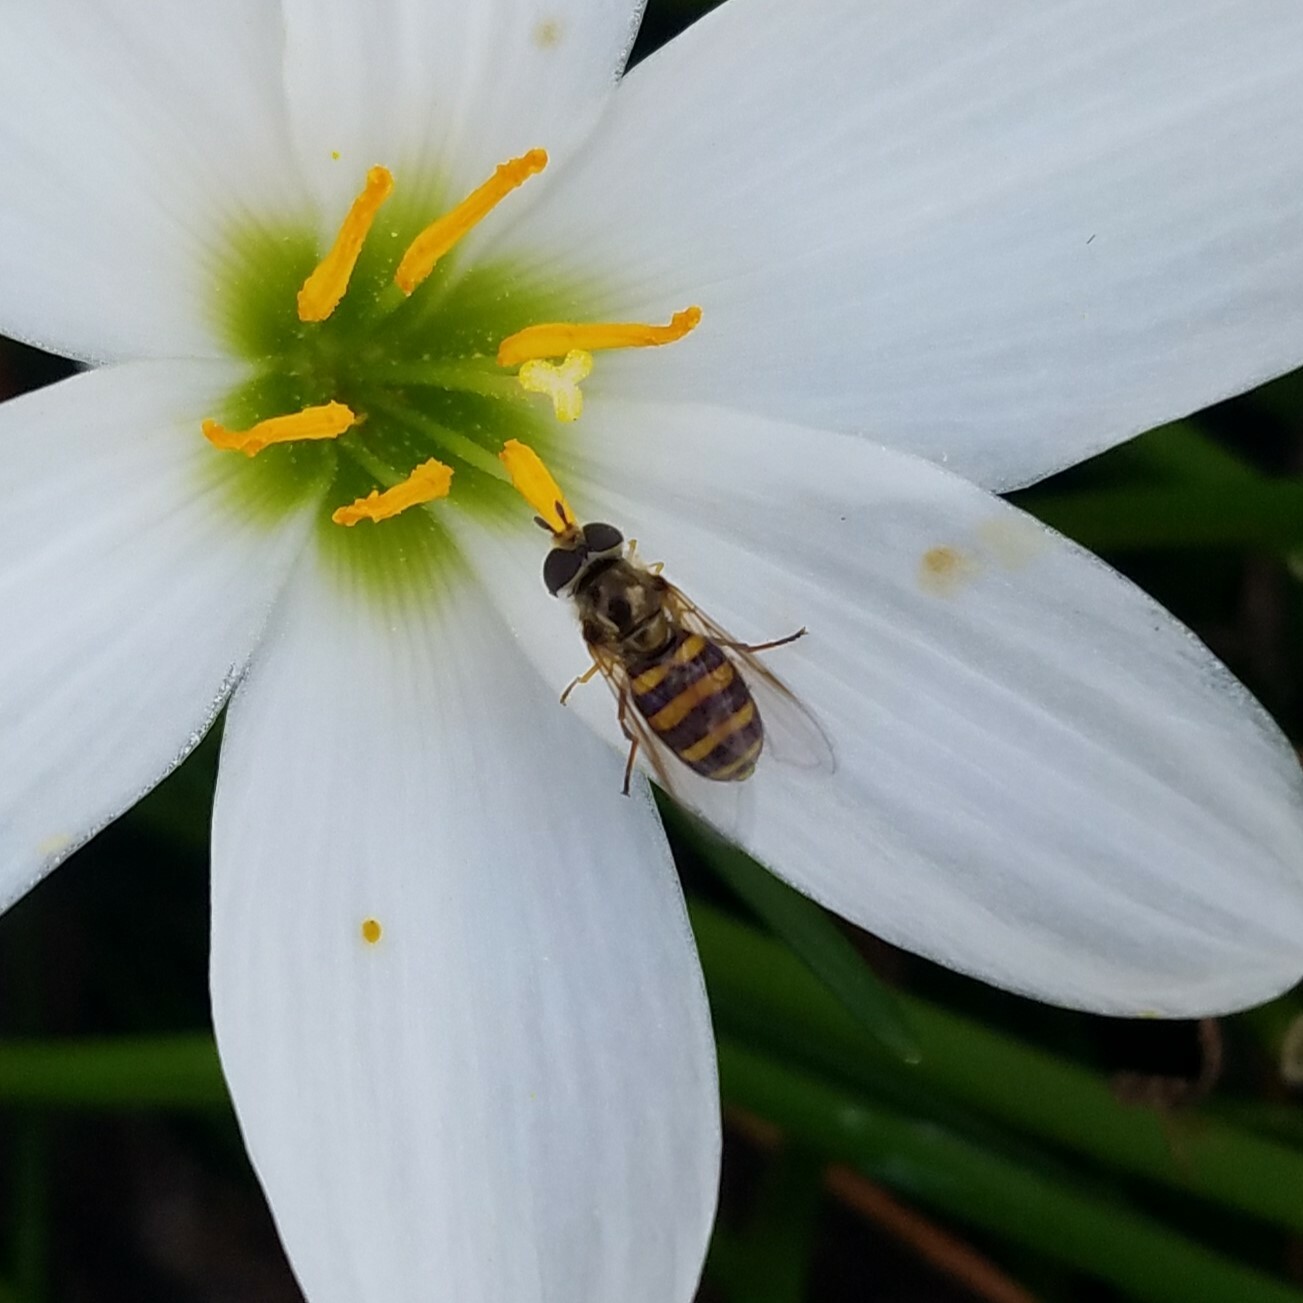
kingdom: Animalia
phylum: Arthropoda
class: Insecta
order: Diptera
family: Syrphidae
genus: Eupeodes
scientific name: Eupeodes
